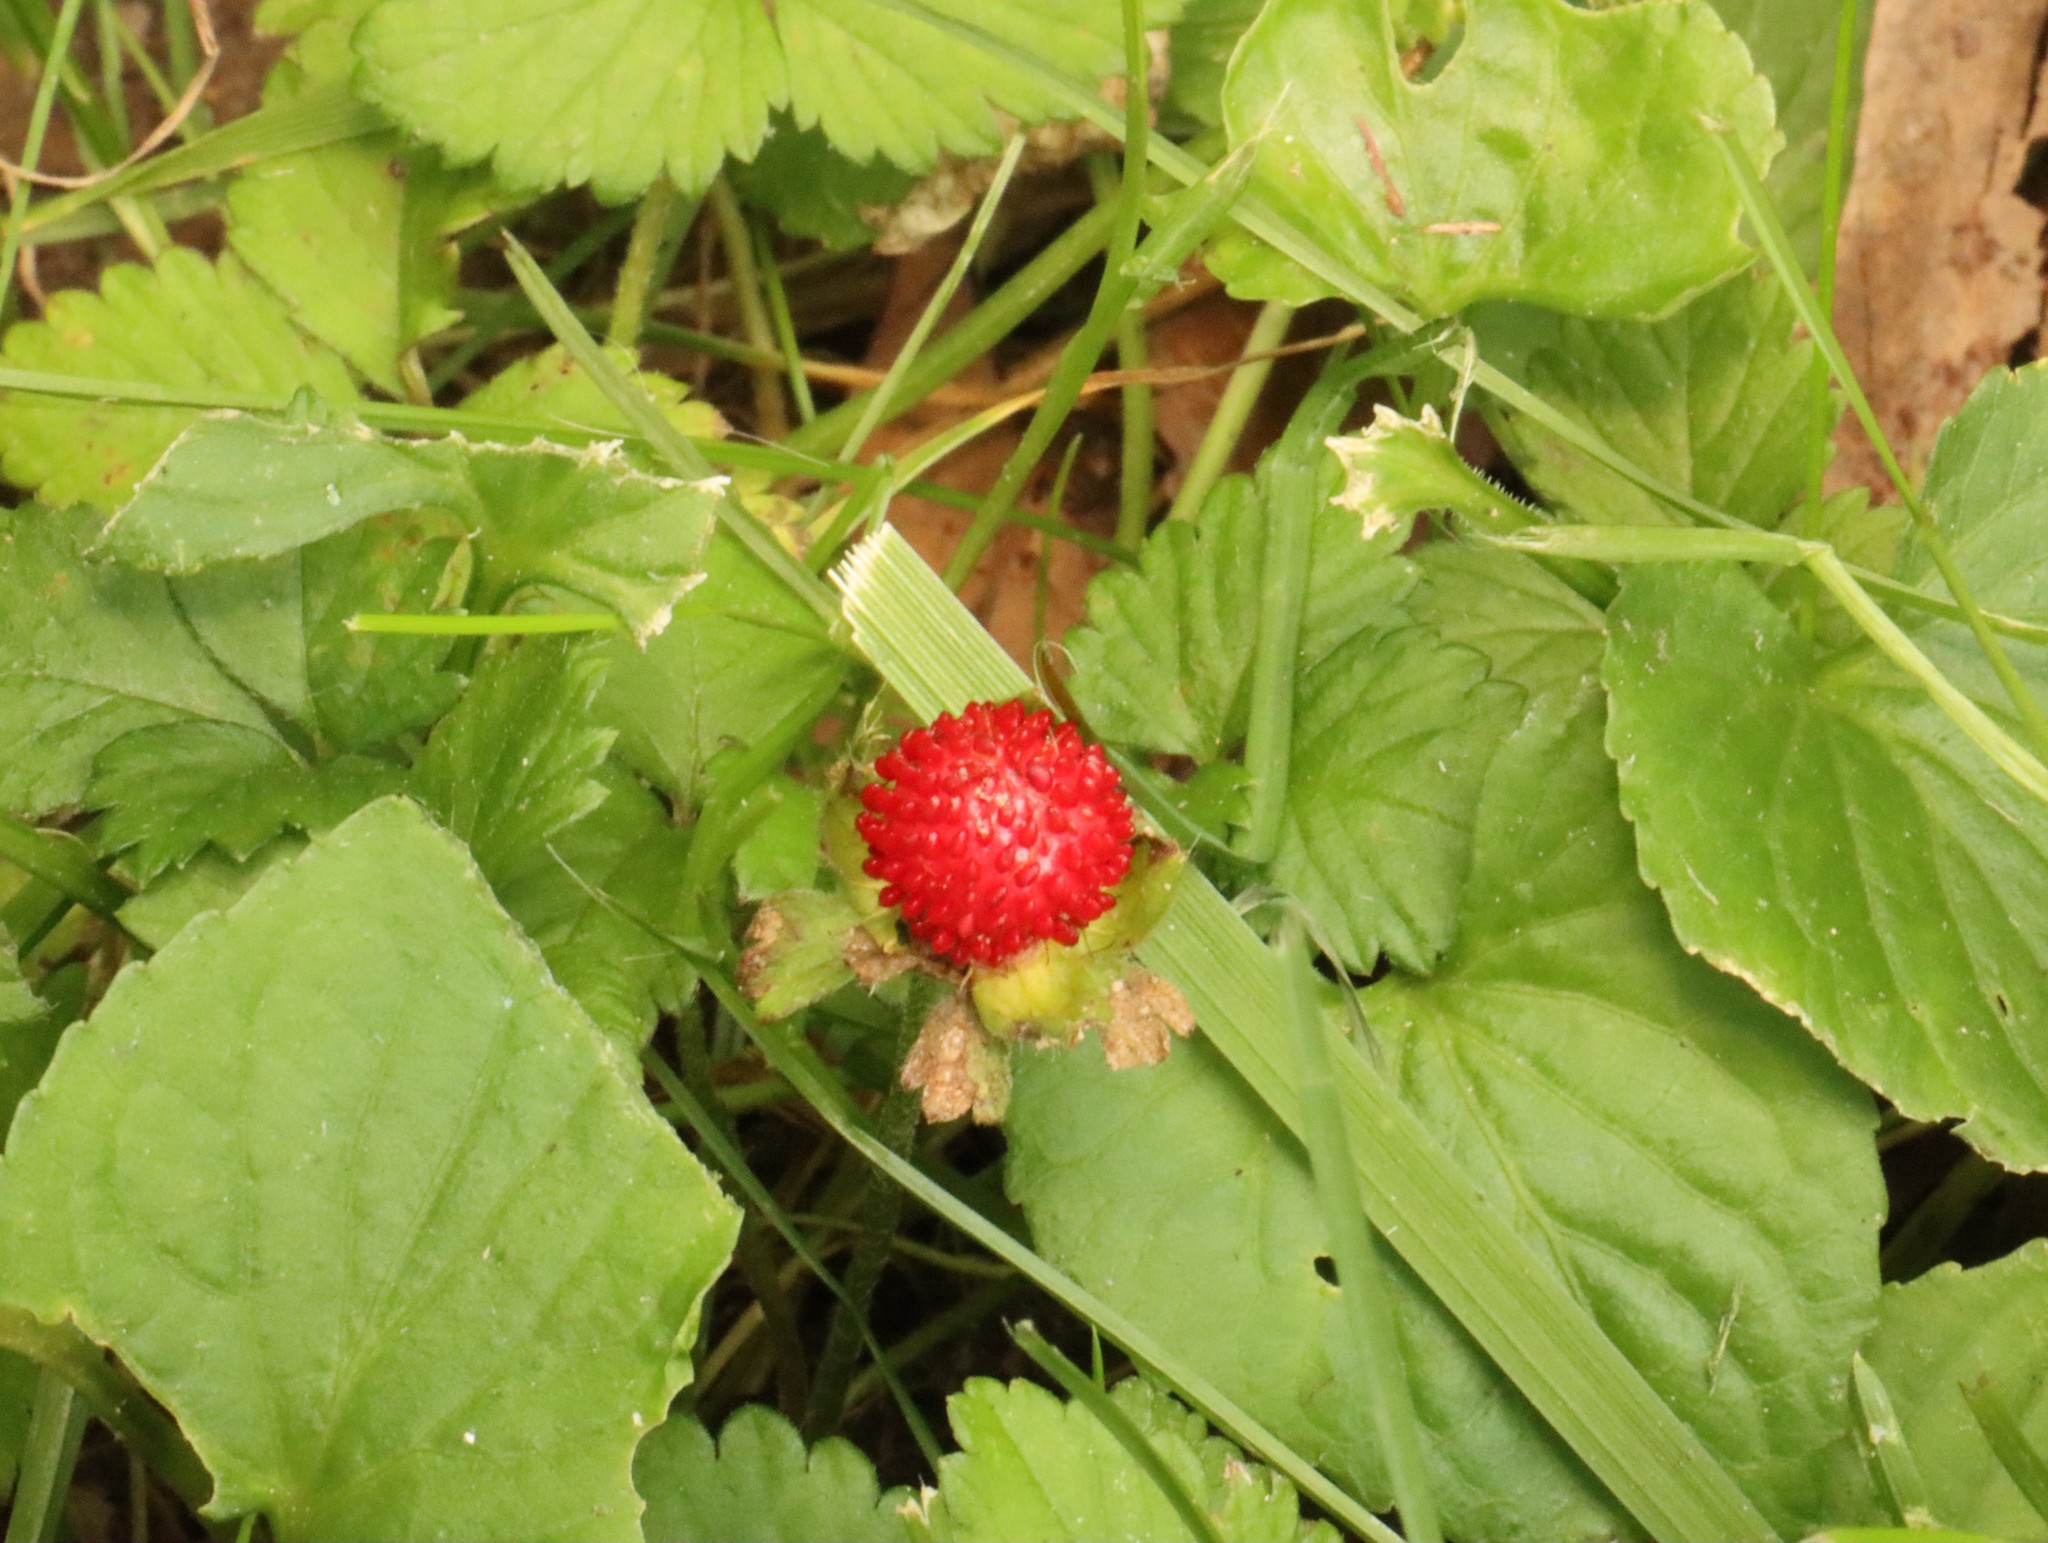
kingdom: Plantae
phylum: Tracheophyta
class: Magnoliopsida
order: Rosales
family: Rosaceae
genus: Potentilla
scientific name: Potentilla indica
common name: Yellow-flowered strawberry
